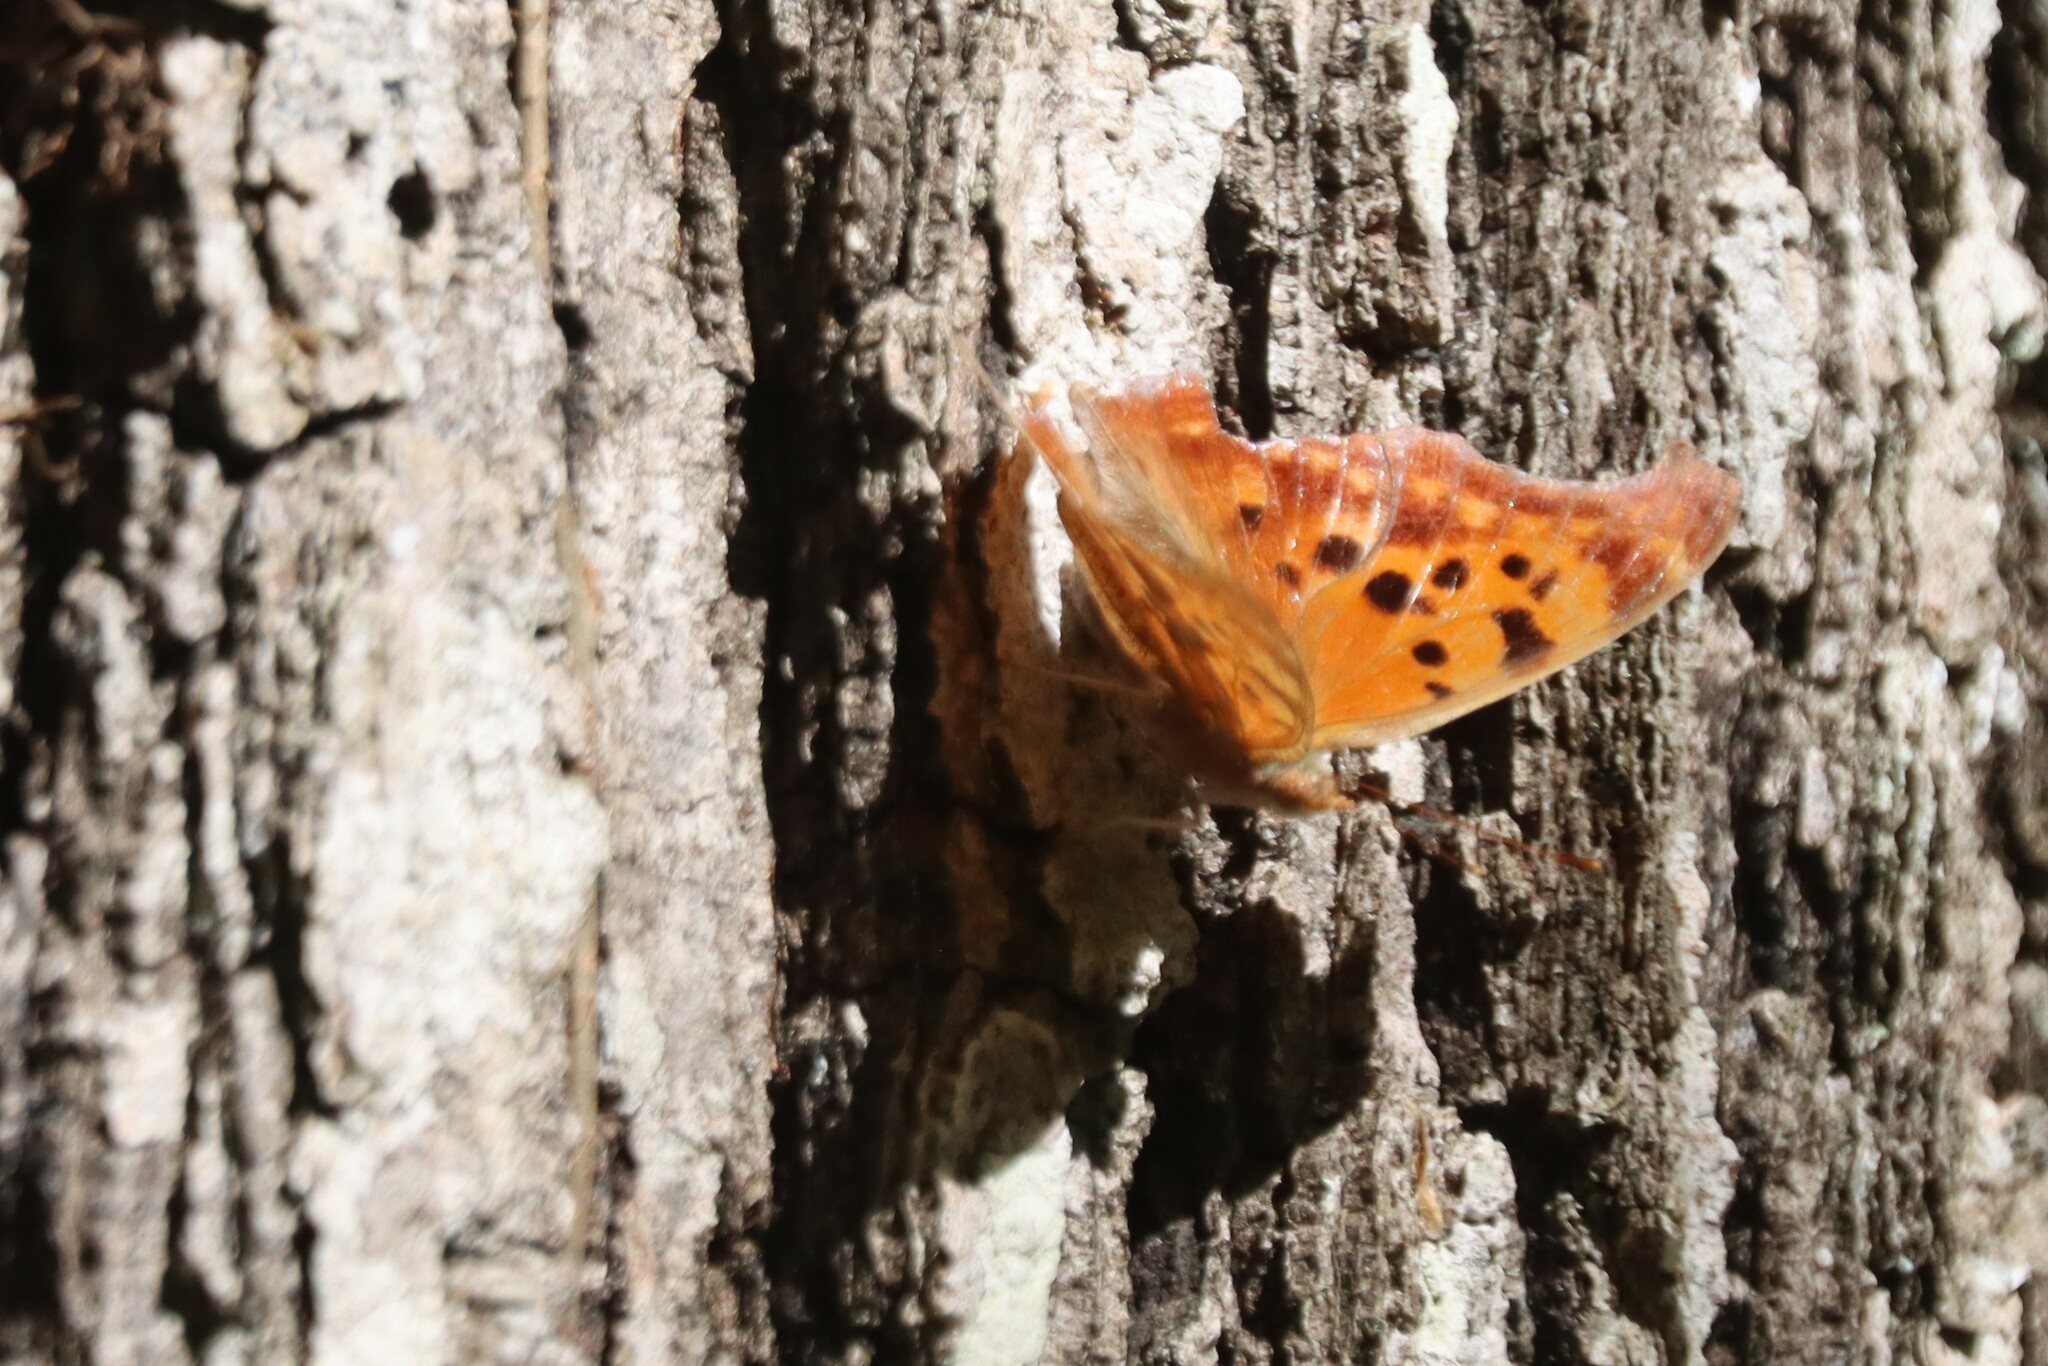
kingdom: Animalia
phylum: Arthropoda
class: Insecta
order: Lepidoptera
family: Nymphalidae
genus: Polygonia
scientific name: Polygonia interrogationis
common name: Question mark
